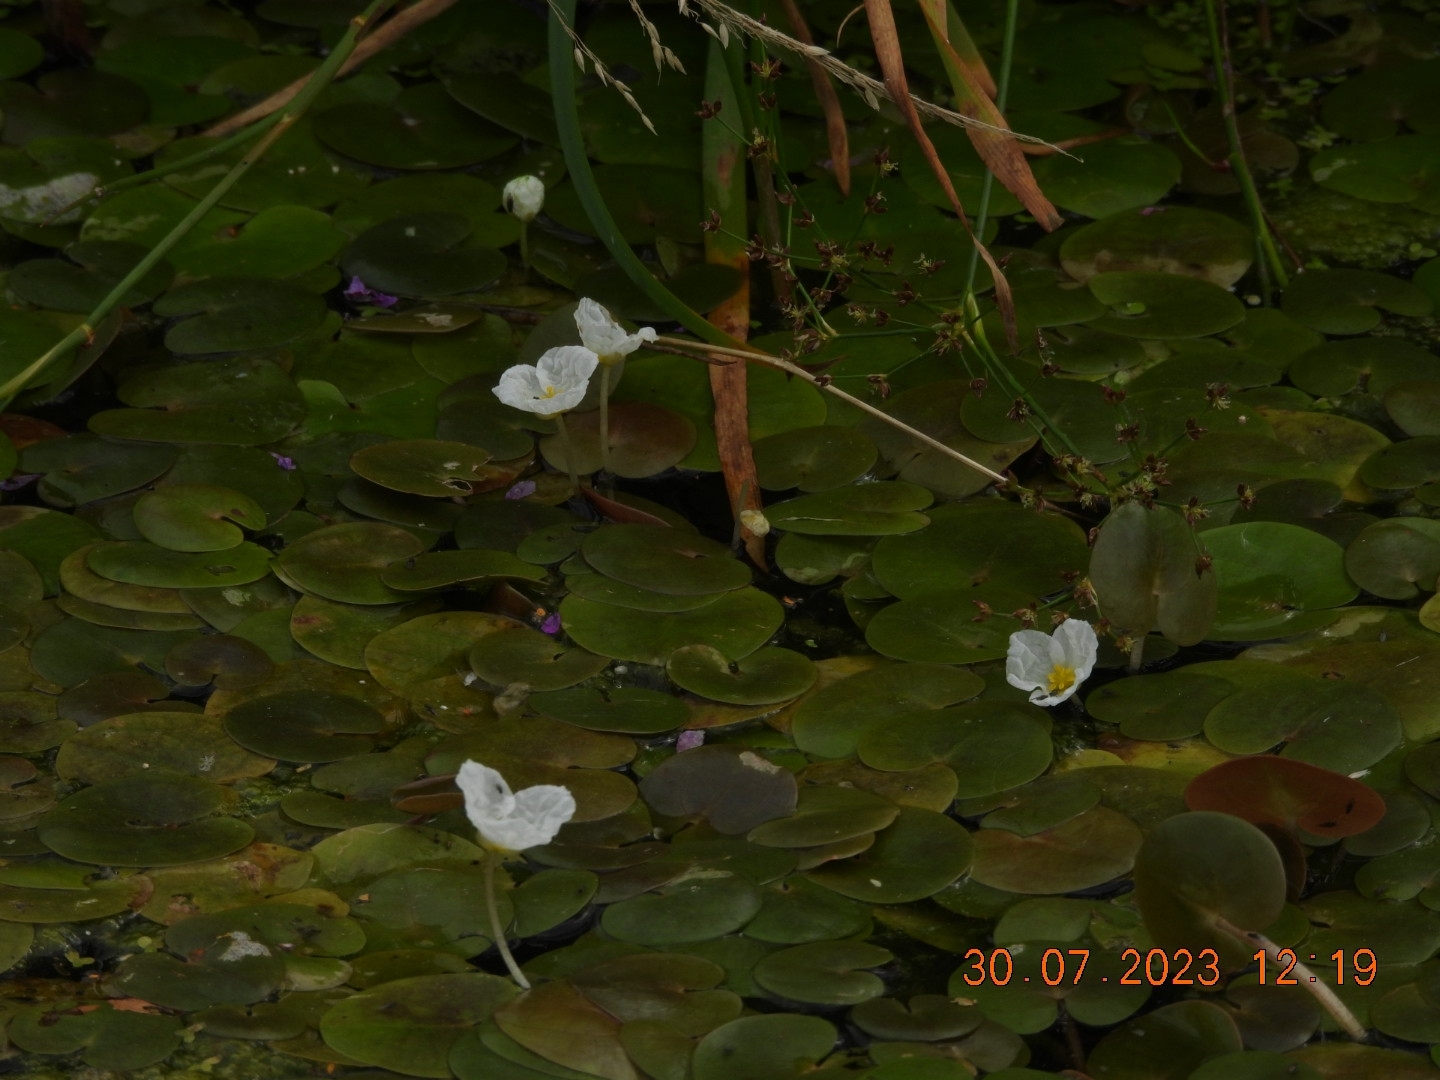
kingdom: Plantae
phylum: Tracheophyta
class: Liliopsida
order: Alismatales
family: Hydrocharitaceae
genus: Hydrocharis
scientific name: Hydrocharis morsus-ranae
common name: Frogbit
